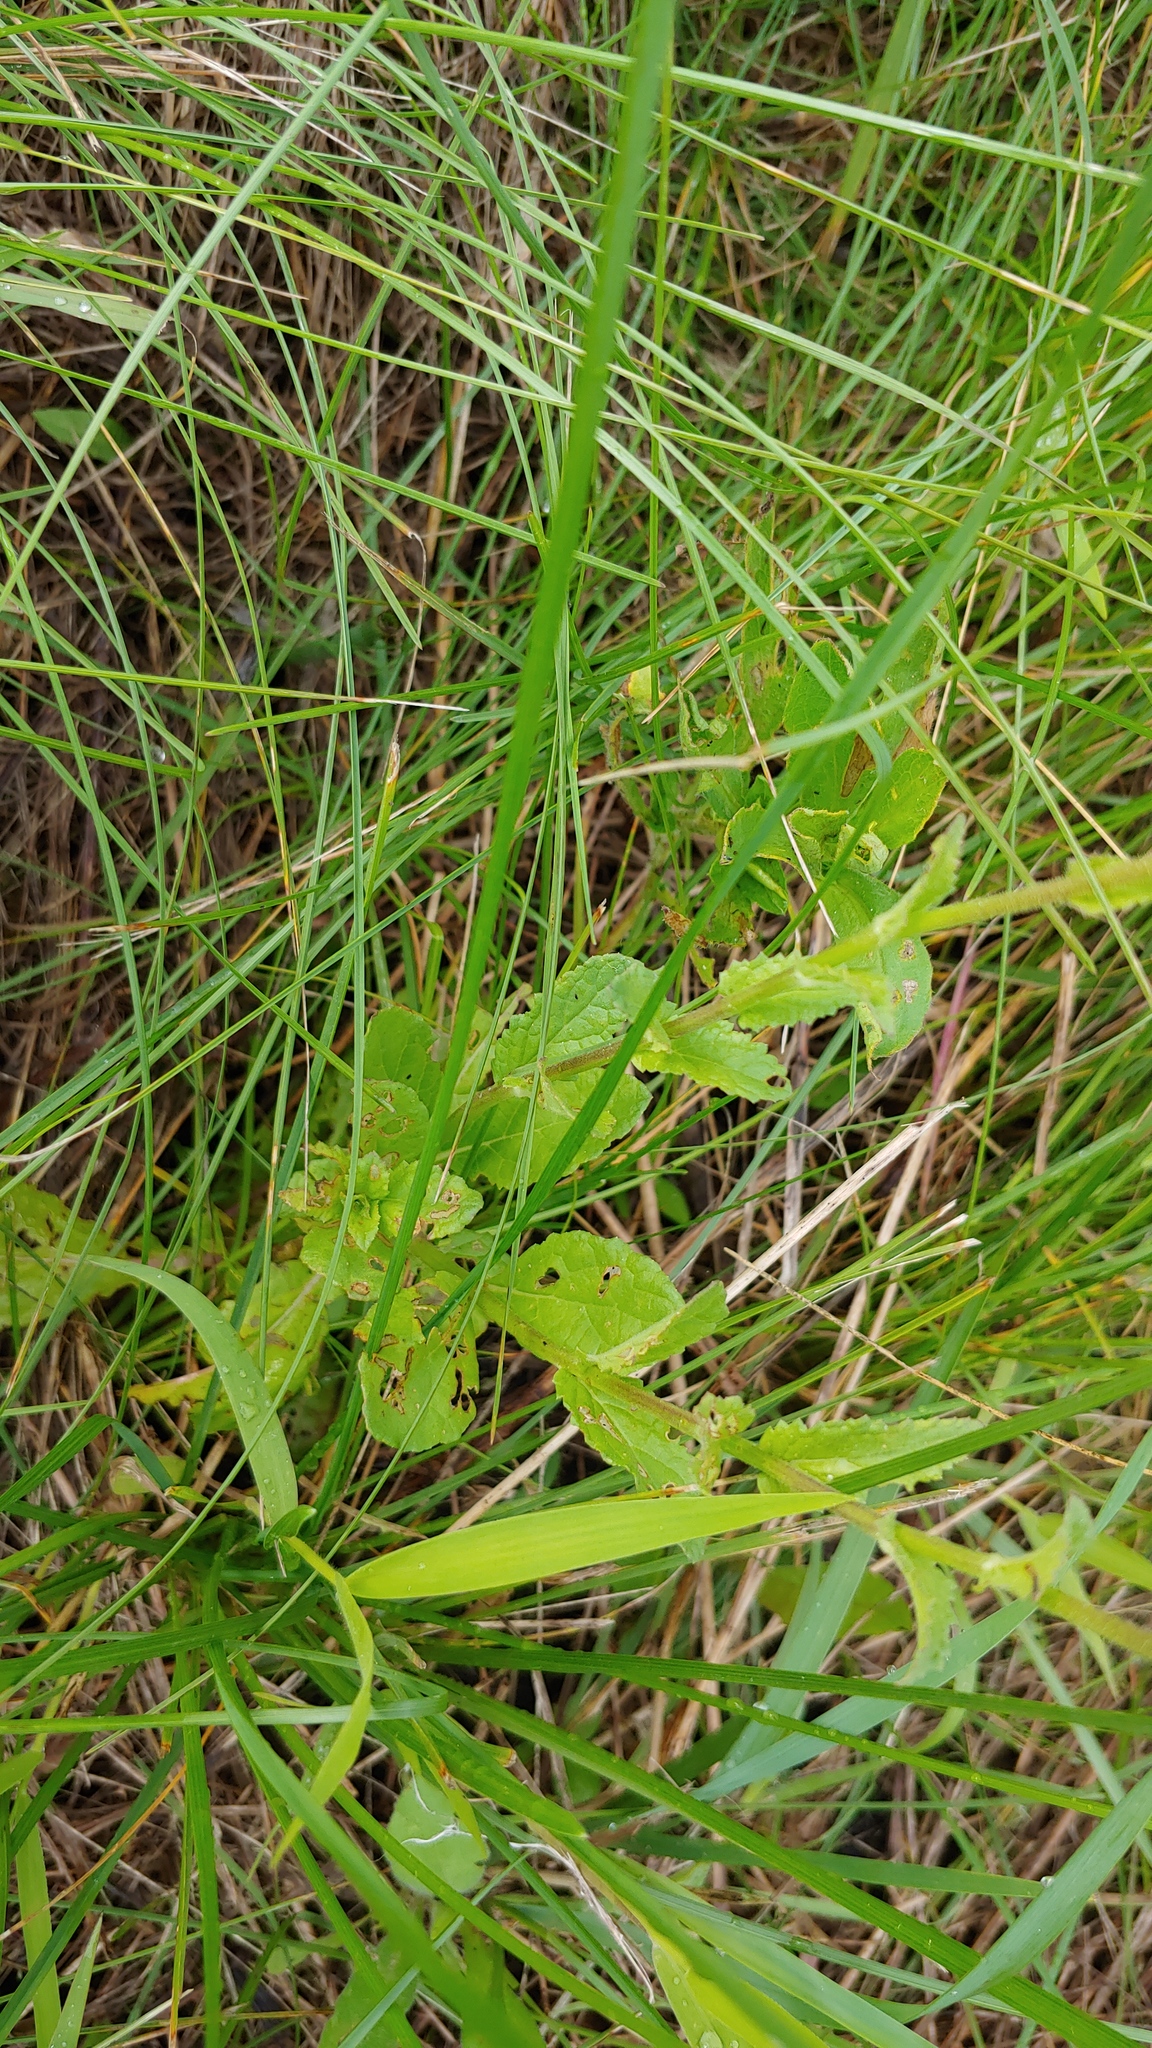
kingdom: Plantae
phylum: Tracheophyta
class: Magnoliopsida
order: Lamiales
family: Scrophulariaceae
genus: Verbascum
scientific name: Verbascum blattaria
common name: Moth mullein
